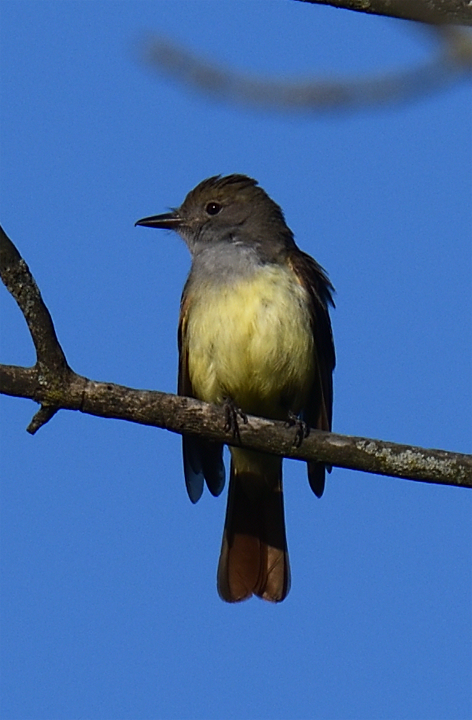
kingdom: Animalia
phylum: Chordata
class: Aves
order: Passeriformes
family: Tyrannidae
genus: Myiarchus
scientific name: Myiarchus crinitus
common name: Great crested flycatcher
